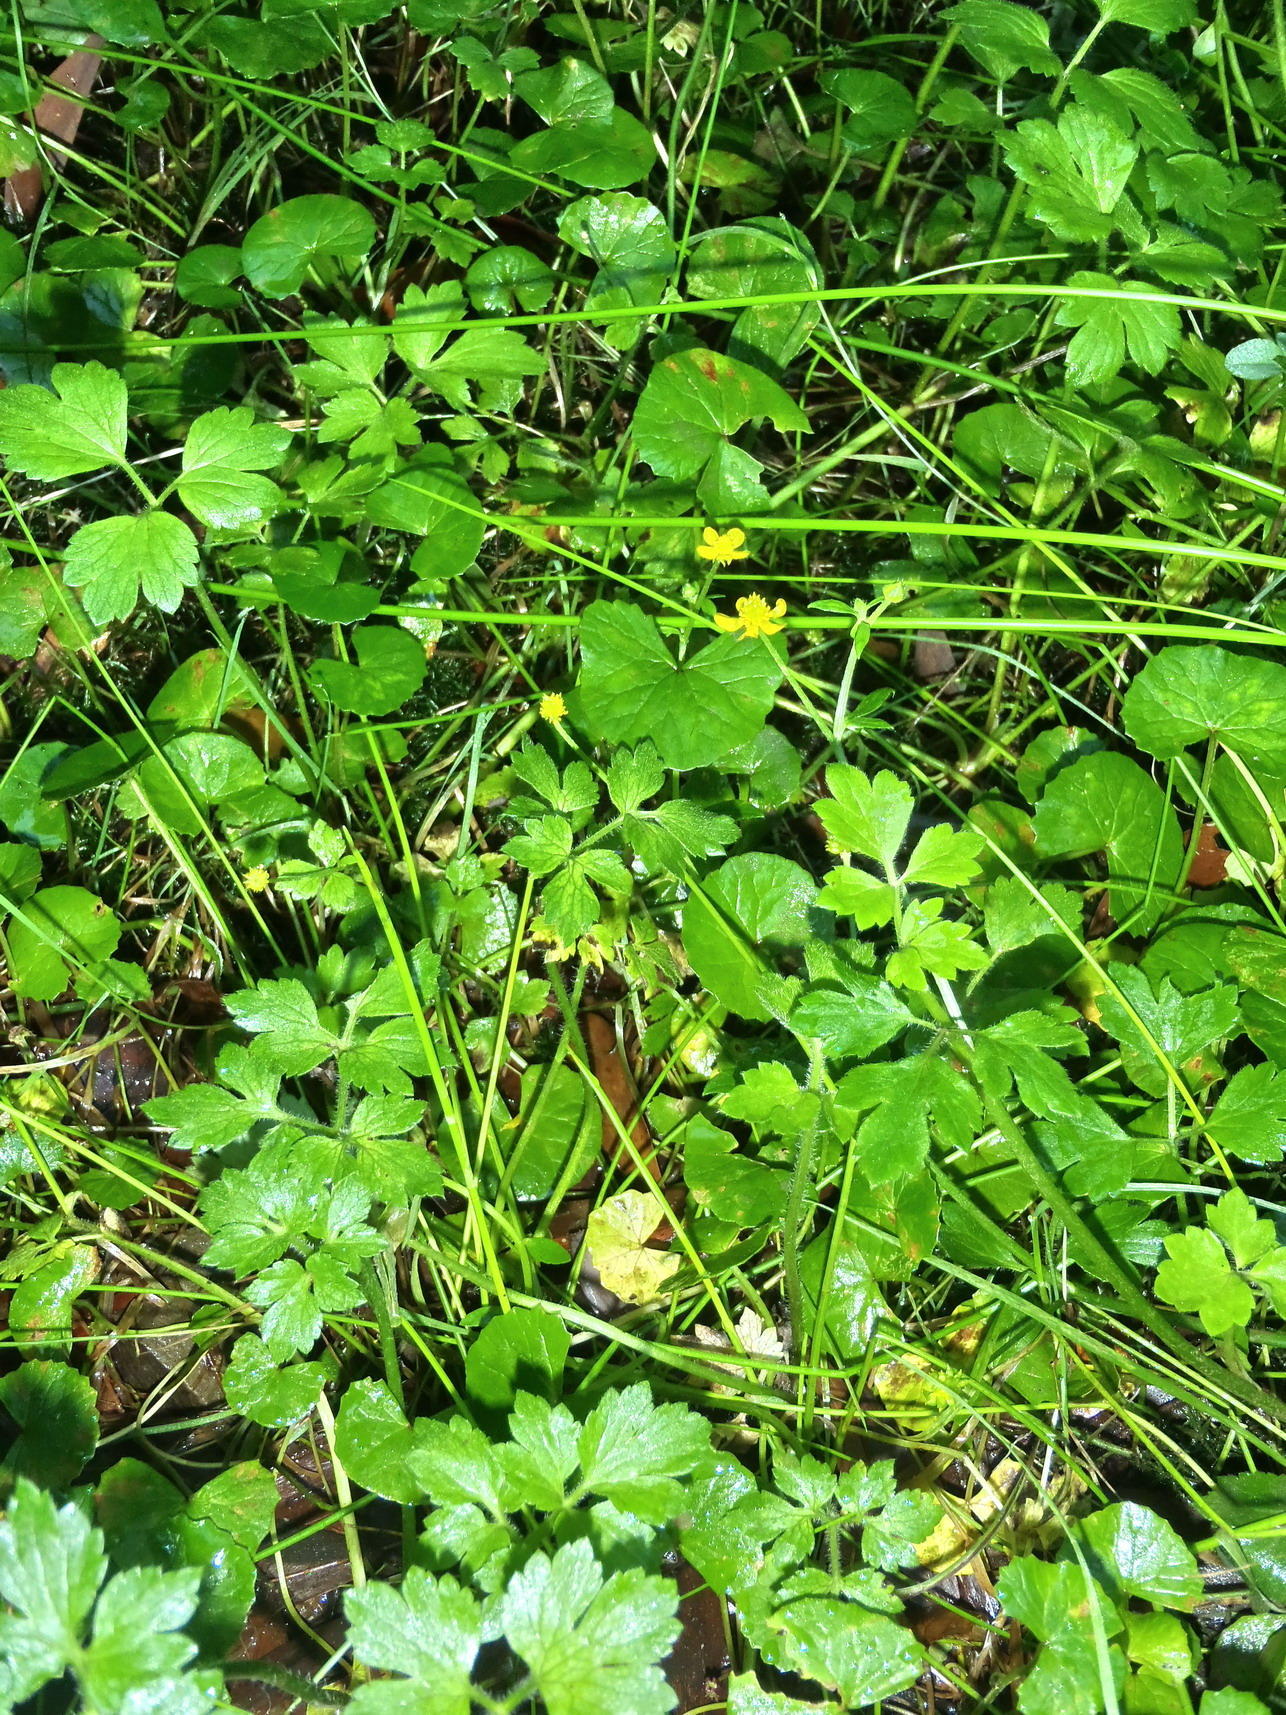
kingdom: Plantae
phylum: Tracheophyta
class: Magnoliopsida
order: Ranunculales
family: Ranunculaceae
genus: Ranunculus
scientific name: Ranunculus multifidus
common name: Wild buttercup
